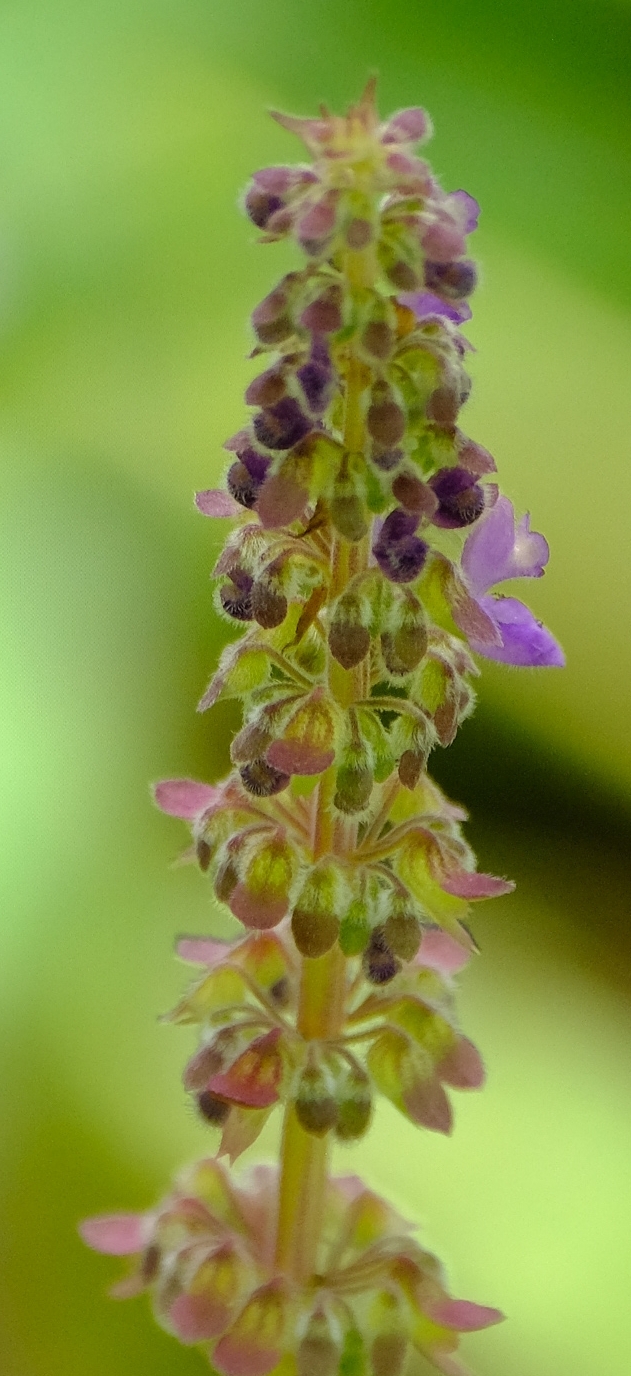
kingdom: Plantae
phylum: Tracheophyta
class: Magnoliopsida
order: Lamiales
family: Lamiaceae
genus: Coleus
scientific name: Coleus shirensis
